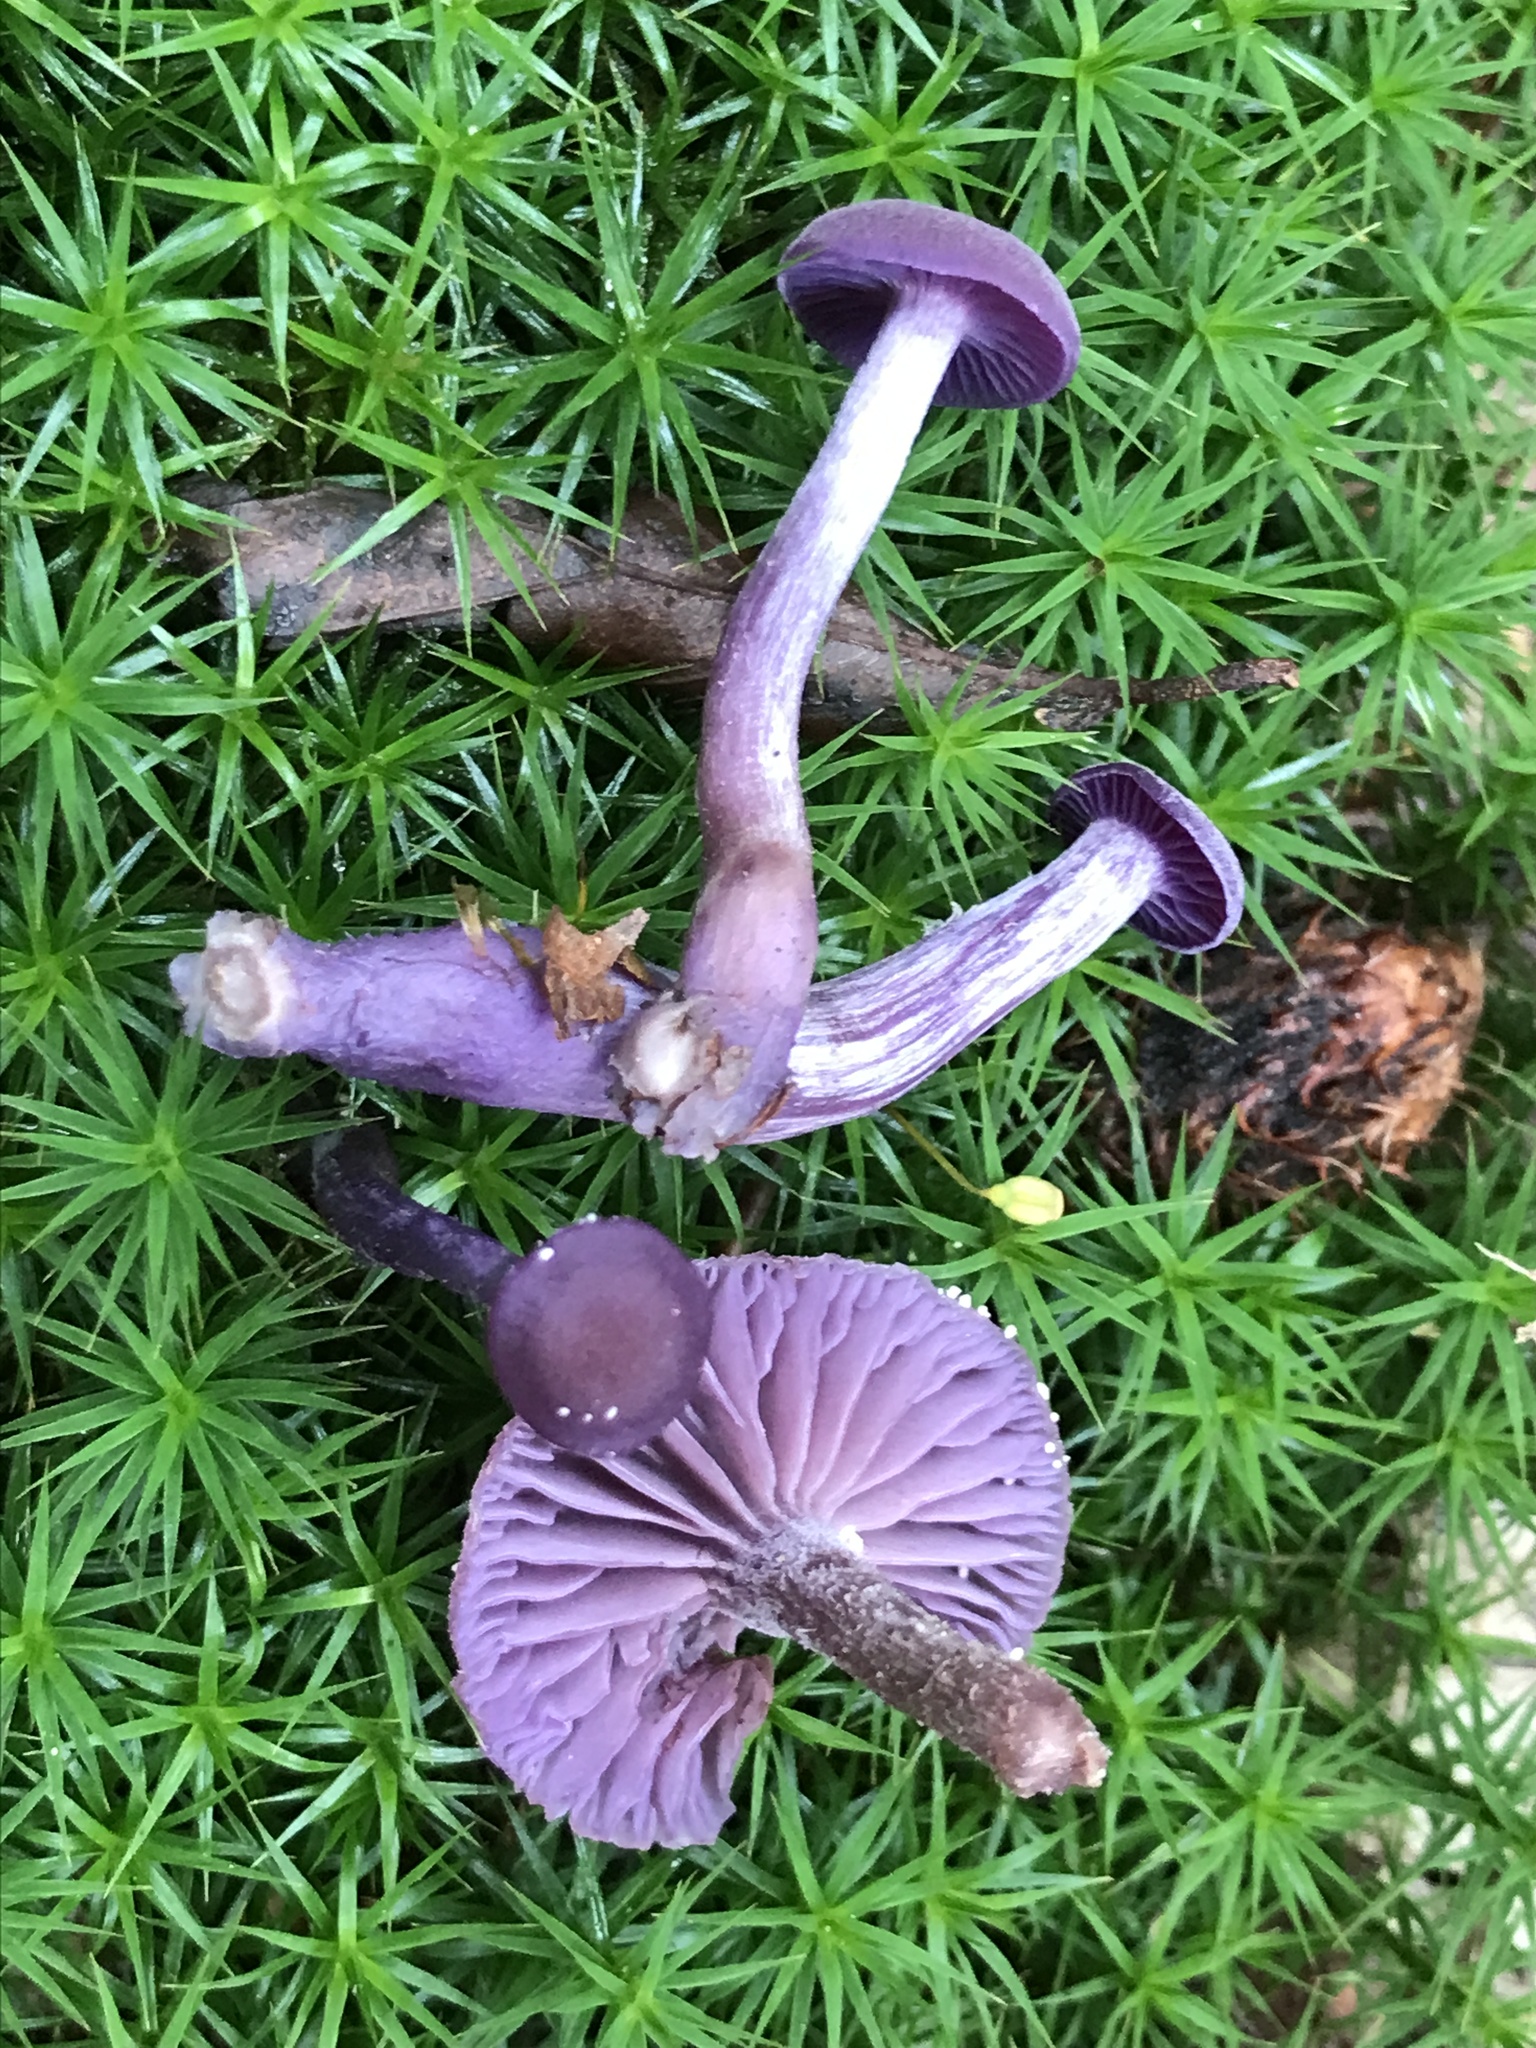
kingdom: Fungi
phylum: Basidiomycota
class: Agaricomycetes
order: Agaricales
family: Hydnangiaceae
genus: Laccaria
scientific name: Laccaria amethystina
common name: Amethyst deceiver
